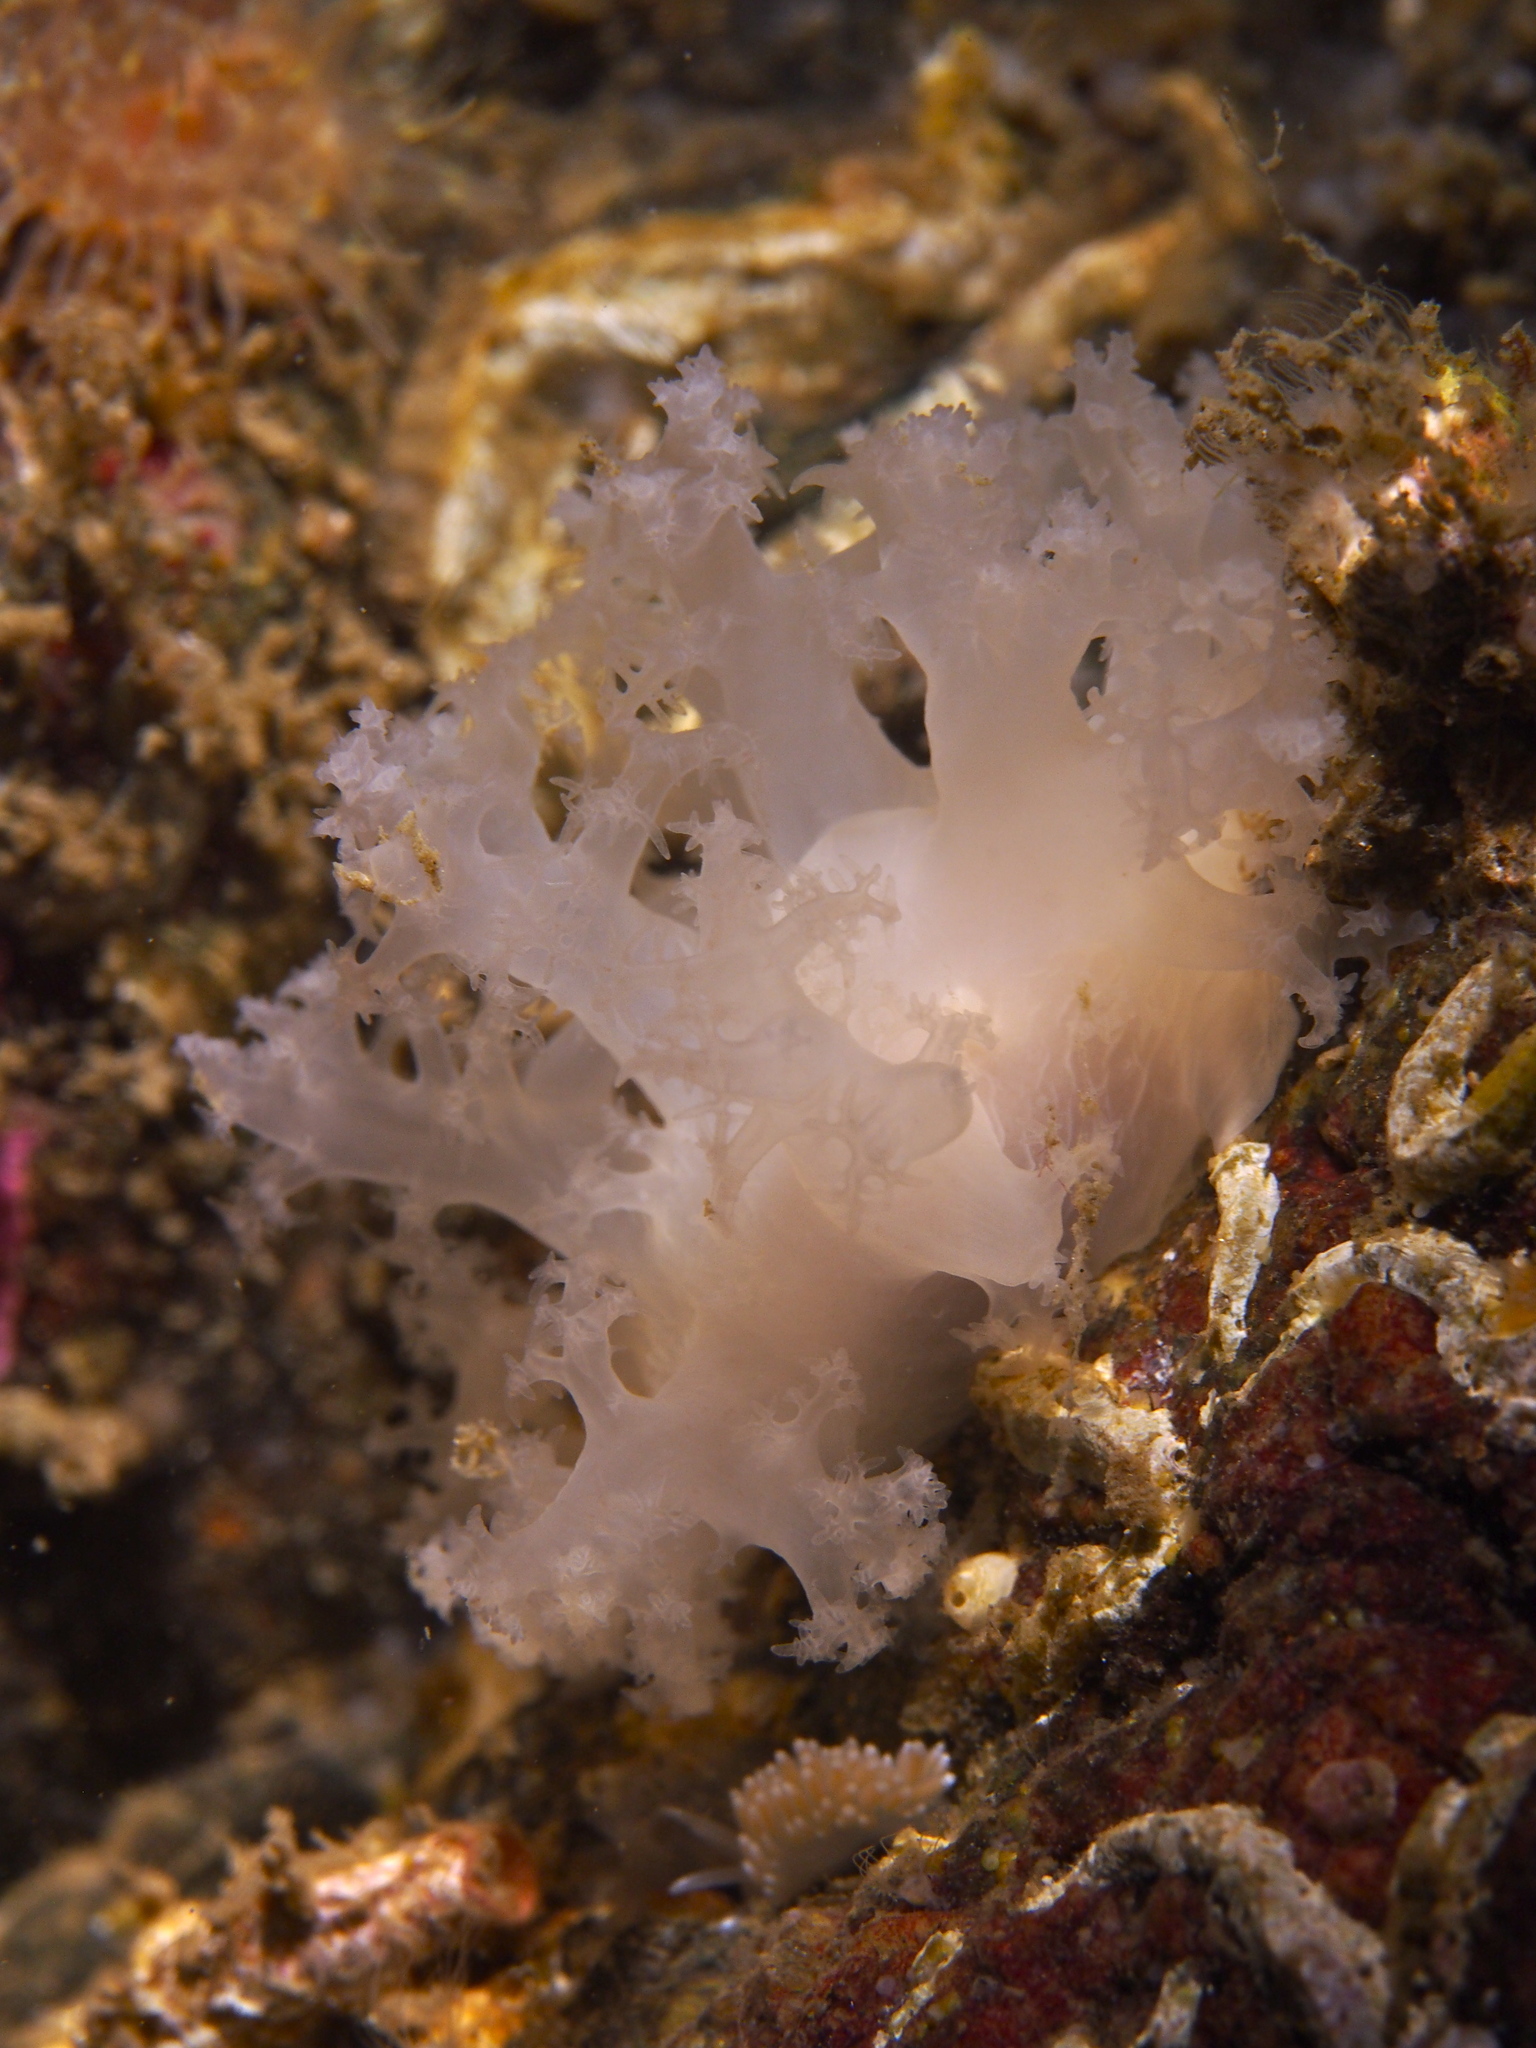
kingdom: Animalia
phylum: Mollusca
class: Gastropoda
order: Nudibranchia
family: Dendronotidae
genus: Dendronotus
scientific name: Dendronotus lacteus
